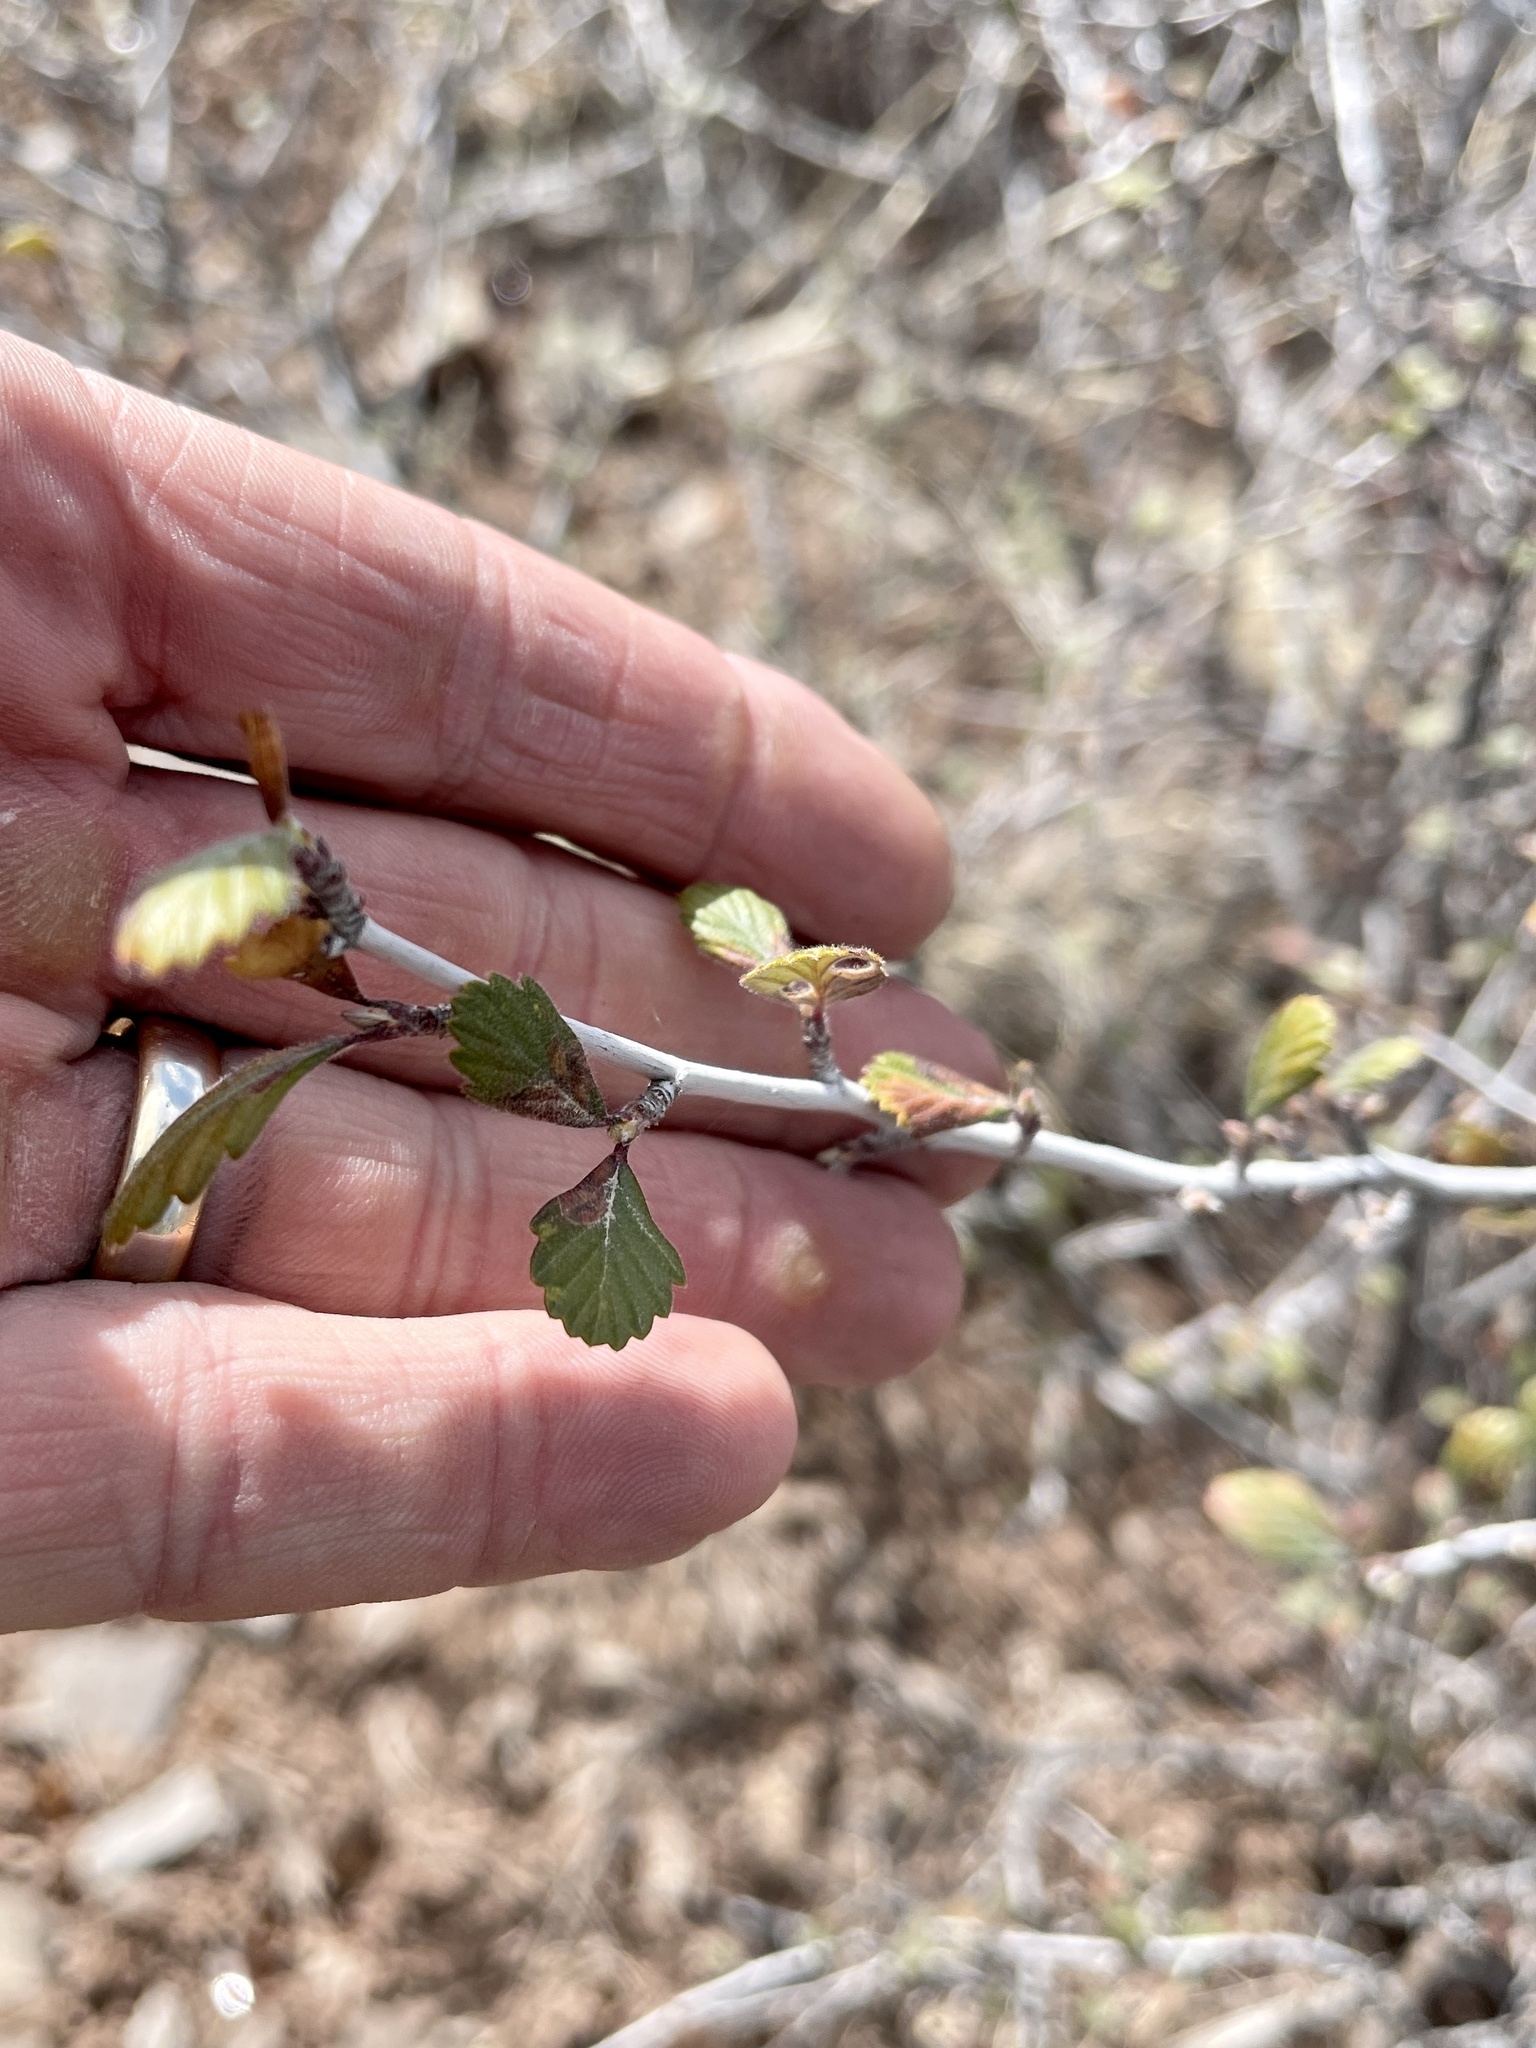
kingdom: Plantae
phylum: Tracheophyta
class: Magnoliopsida
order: Rosales
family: Rosaceae
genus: Cercocarpus
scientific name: Cercocarpus montanus
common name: Alder-leaf cercocarpus
